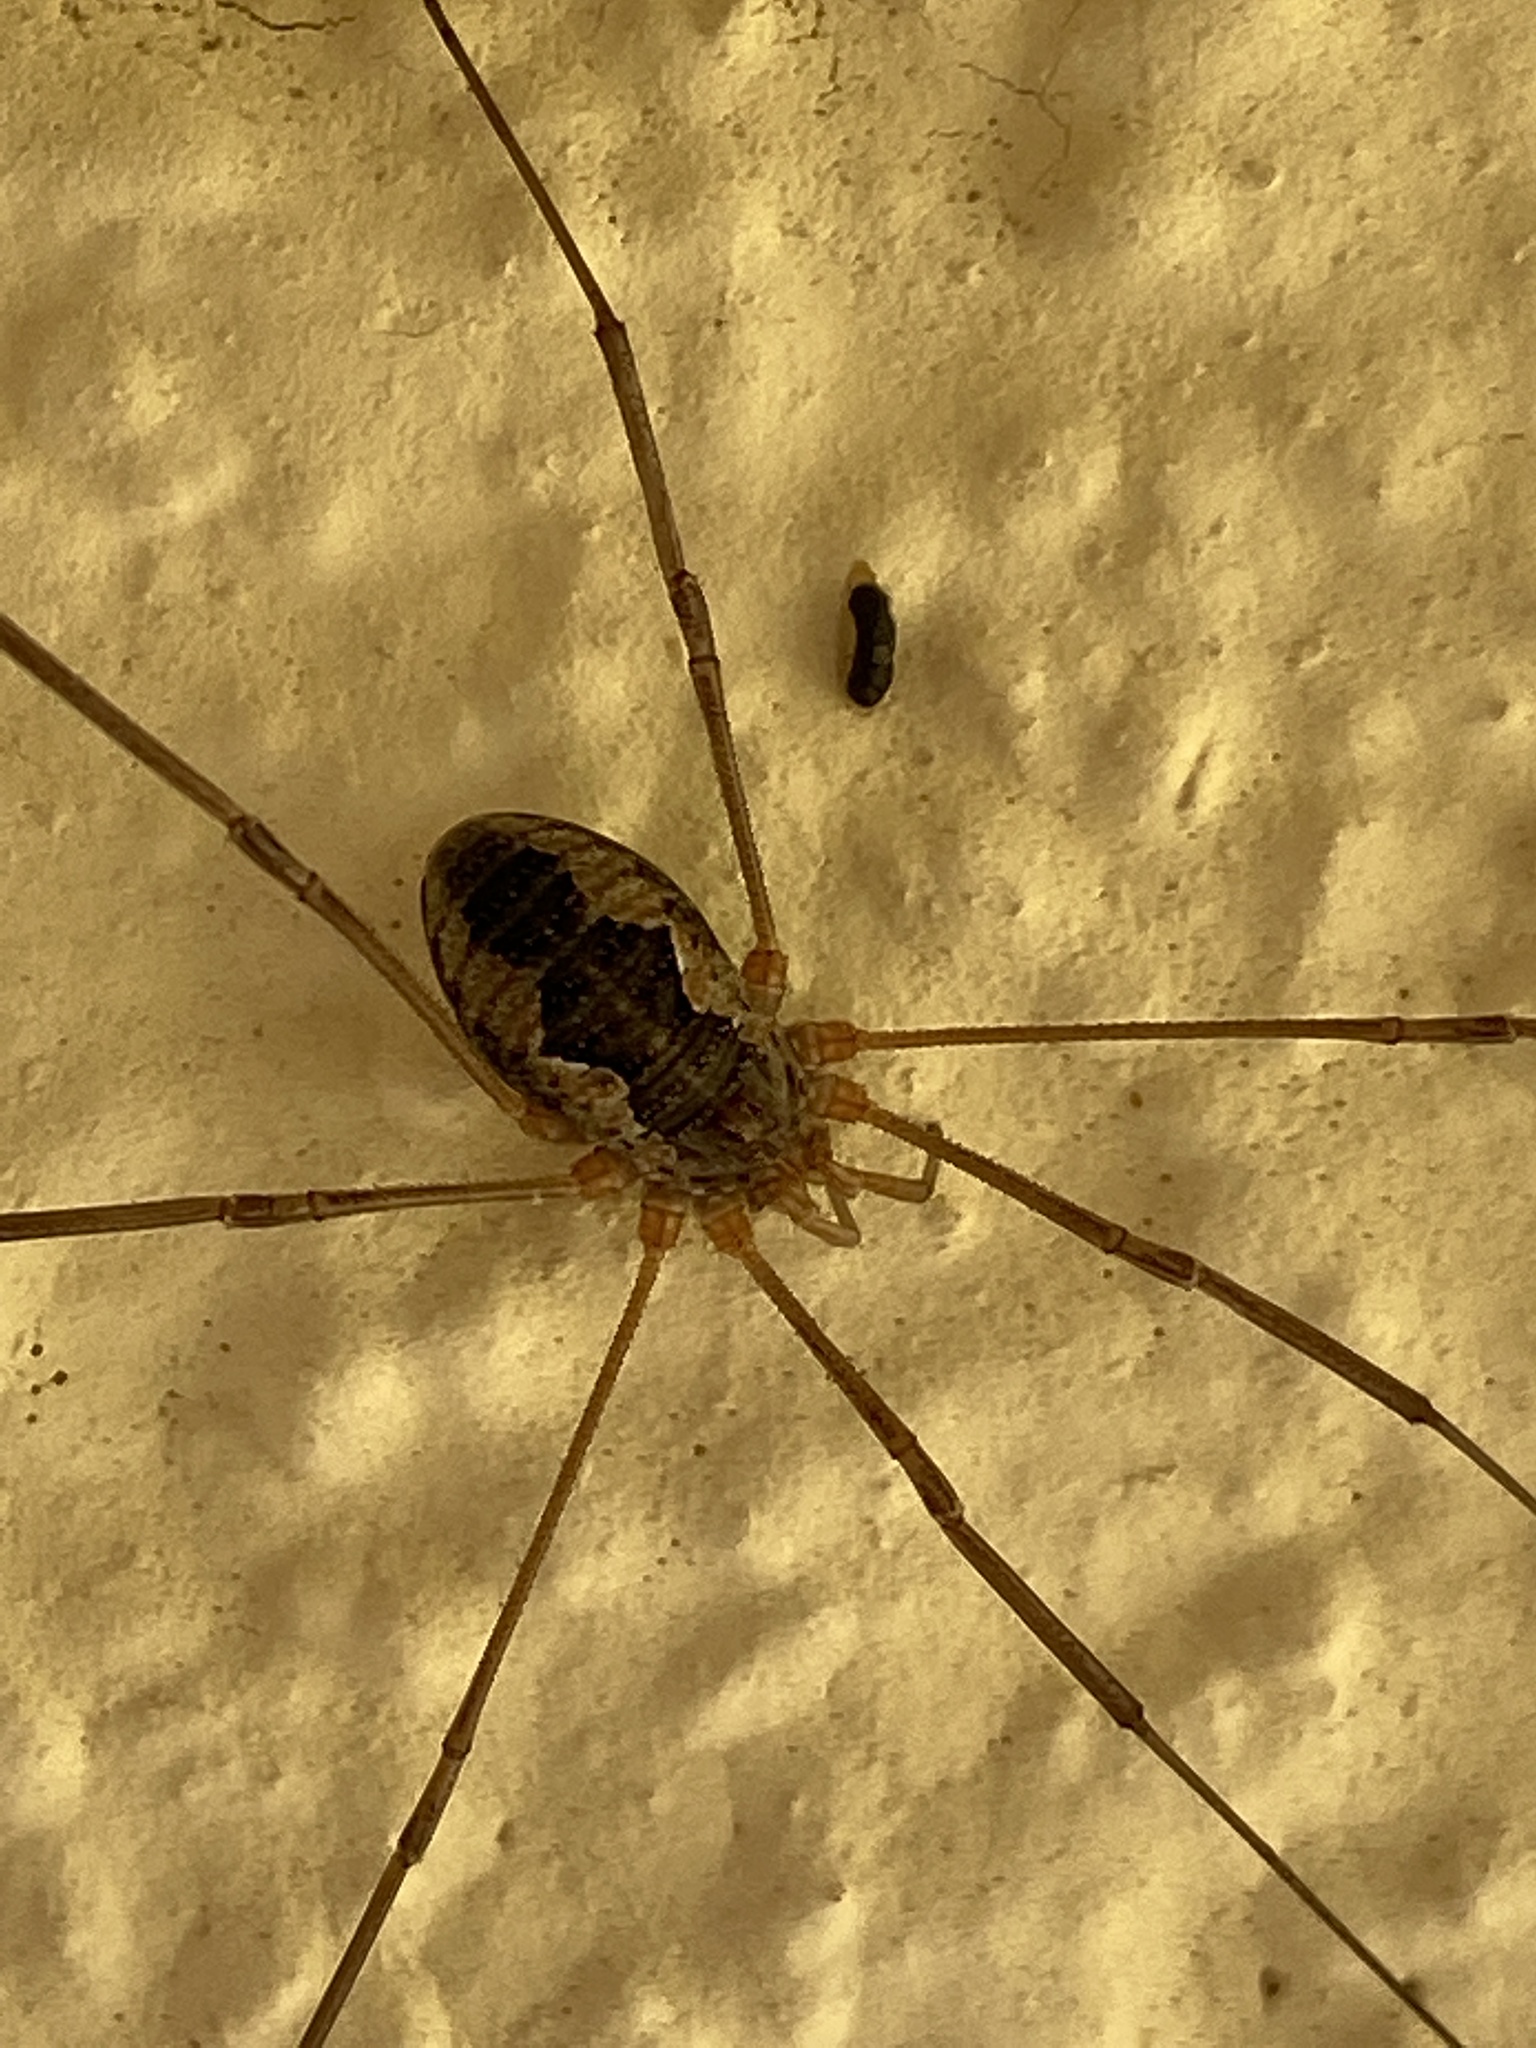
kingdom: Animalia
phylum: Arthropoda
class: Arachnida
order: Opiliones
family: Phalangiidae
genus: Phalangium
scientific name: Phalangium opilio
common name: Daddy longleg
